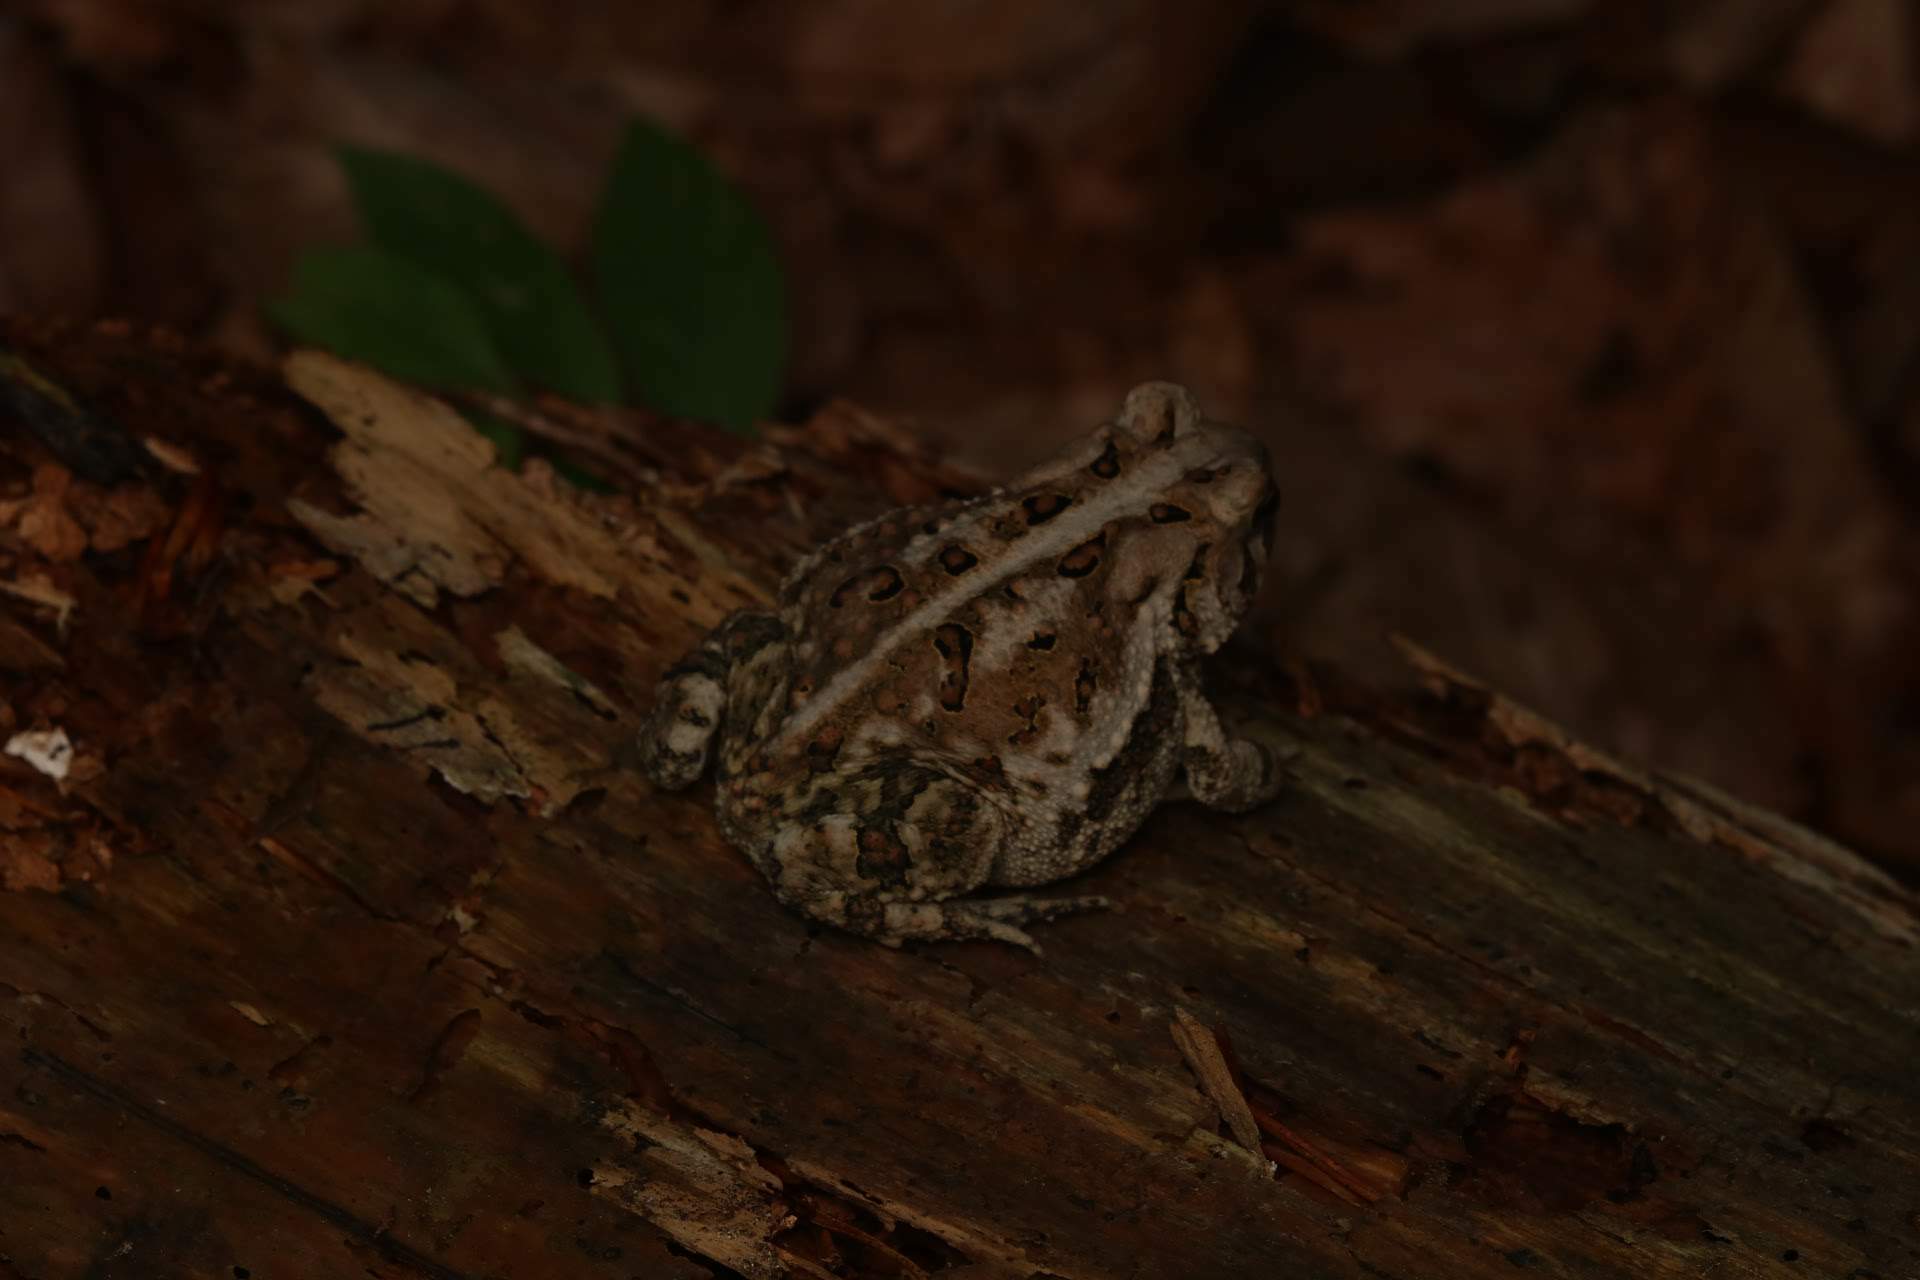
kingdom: Animalia
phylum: Chordata
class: Amphibia
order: Anura
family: Bufonidae
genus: Anaxyrus
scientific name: Anaxyrus americanus
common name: American toad
